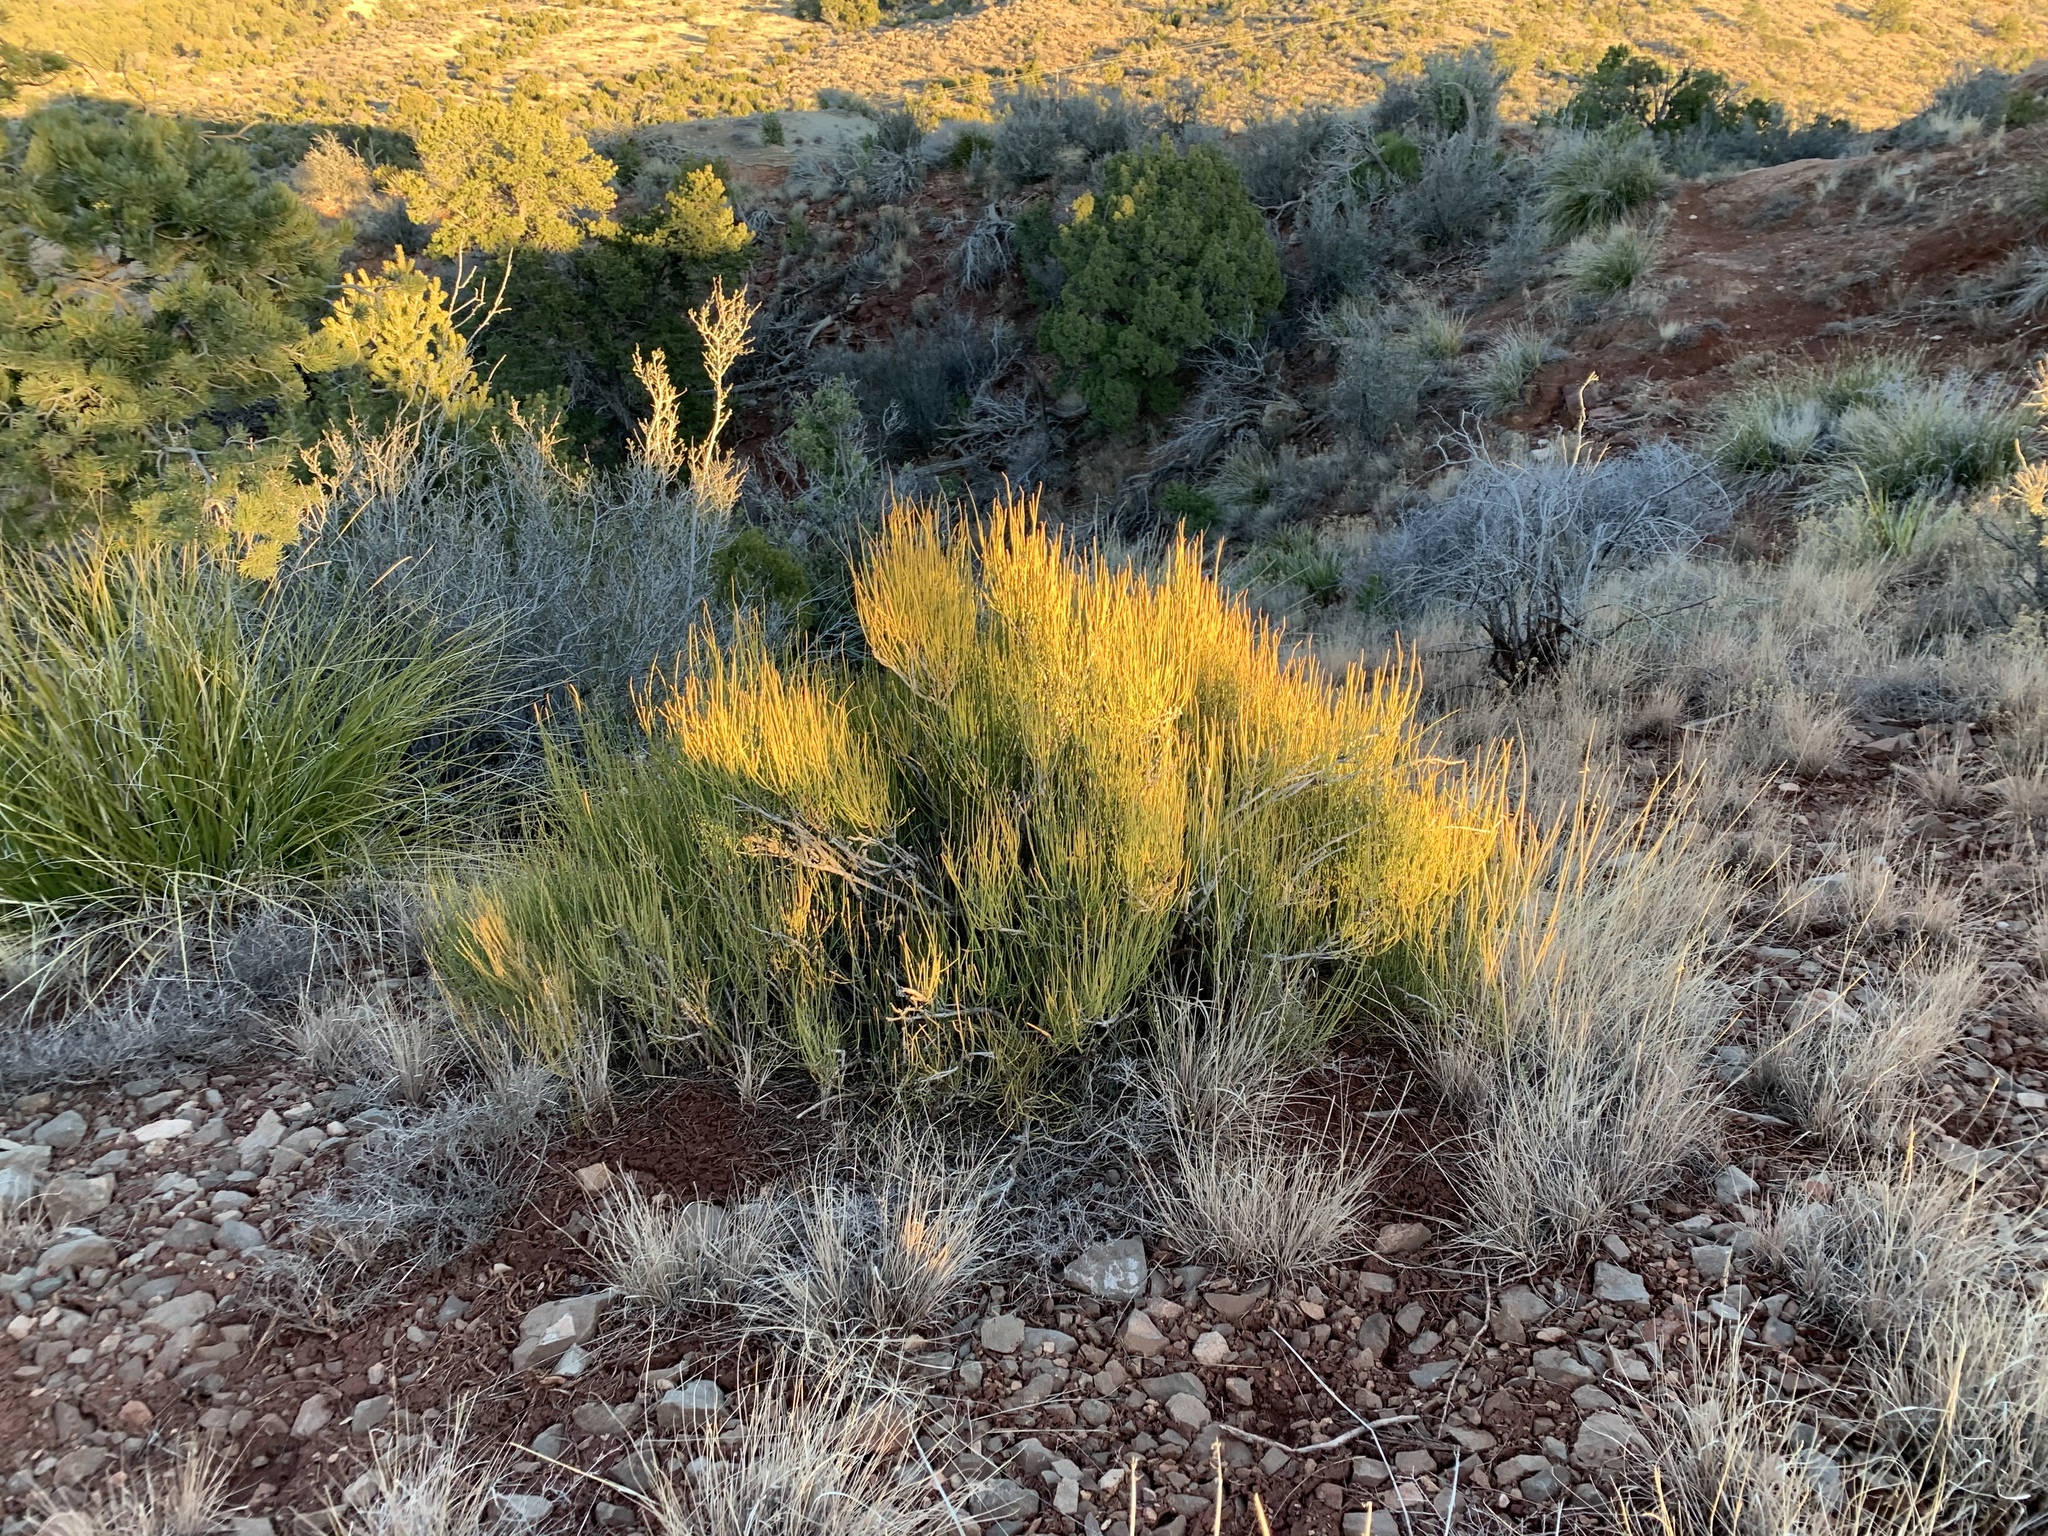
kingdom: Plantae
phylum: Tracheophyta
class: Gnetopsida
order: Ephedrales
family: Ephedraceae
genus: Ephedra
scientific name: Ephedra viridis
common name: Green ephedra
